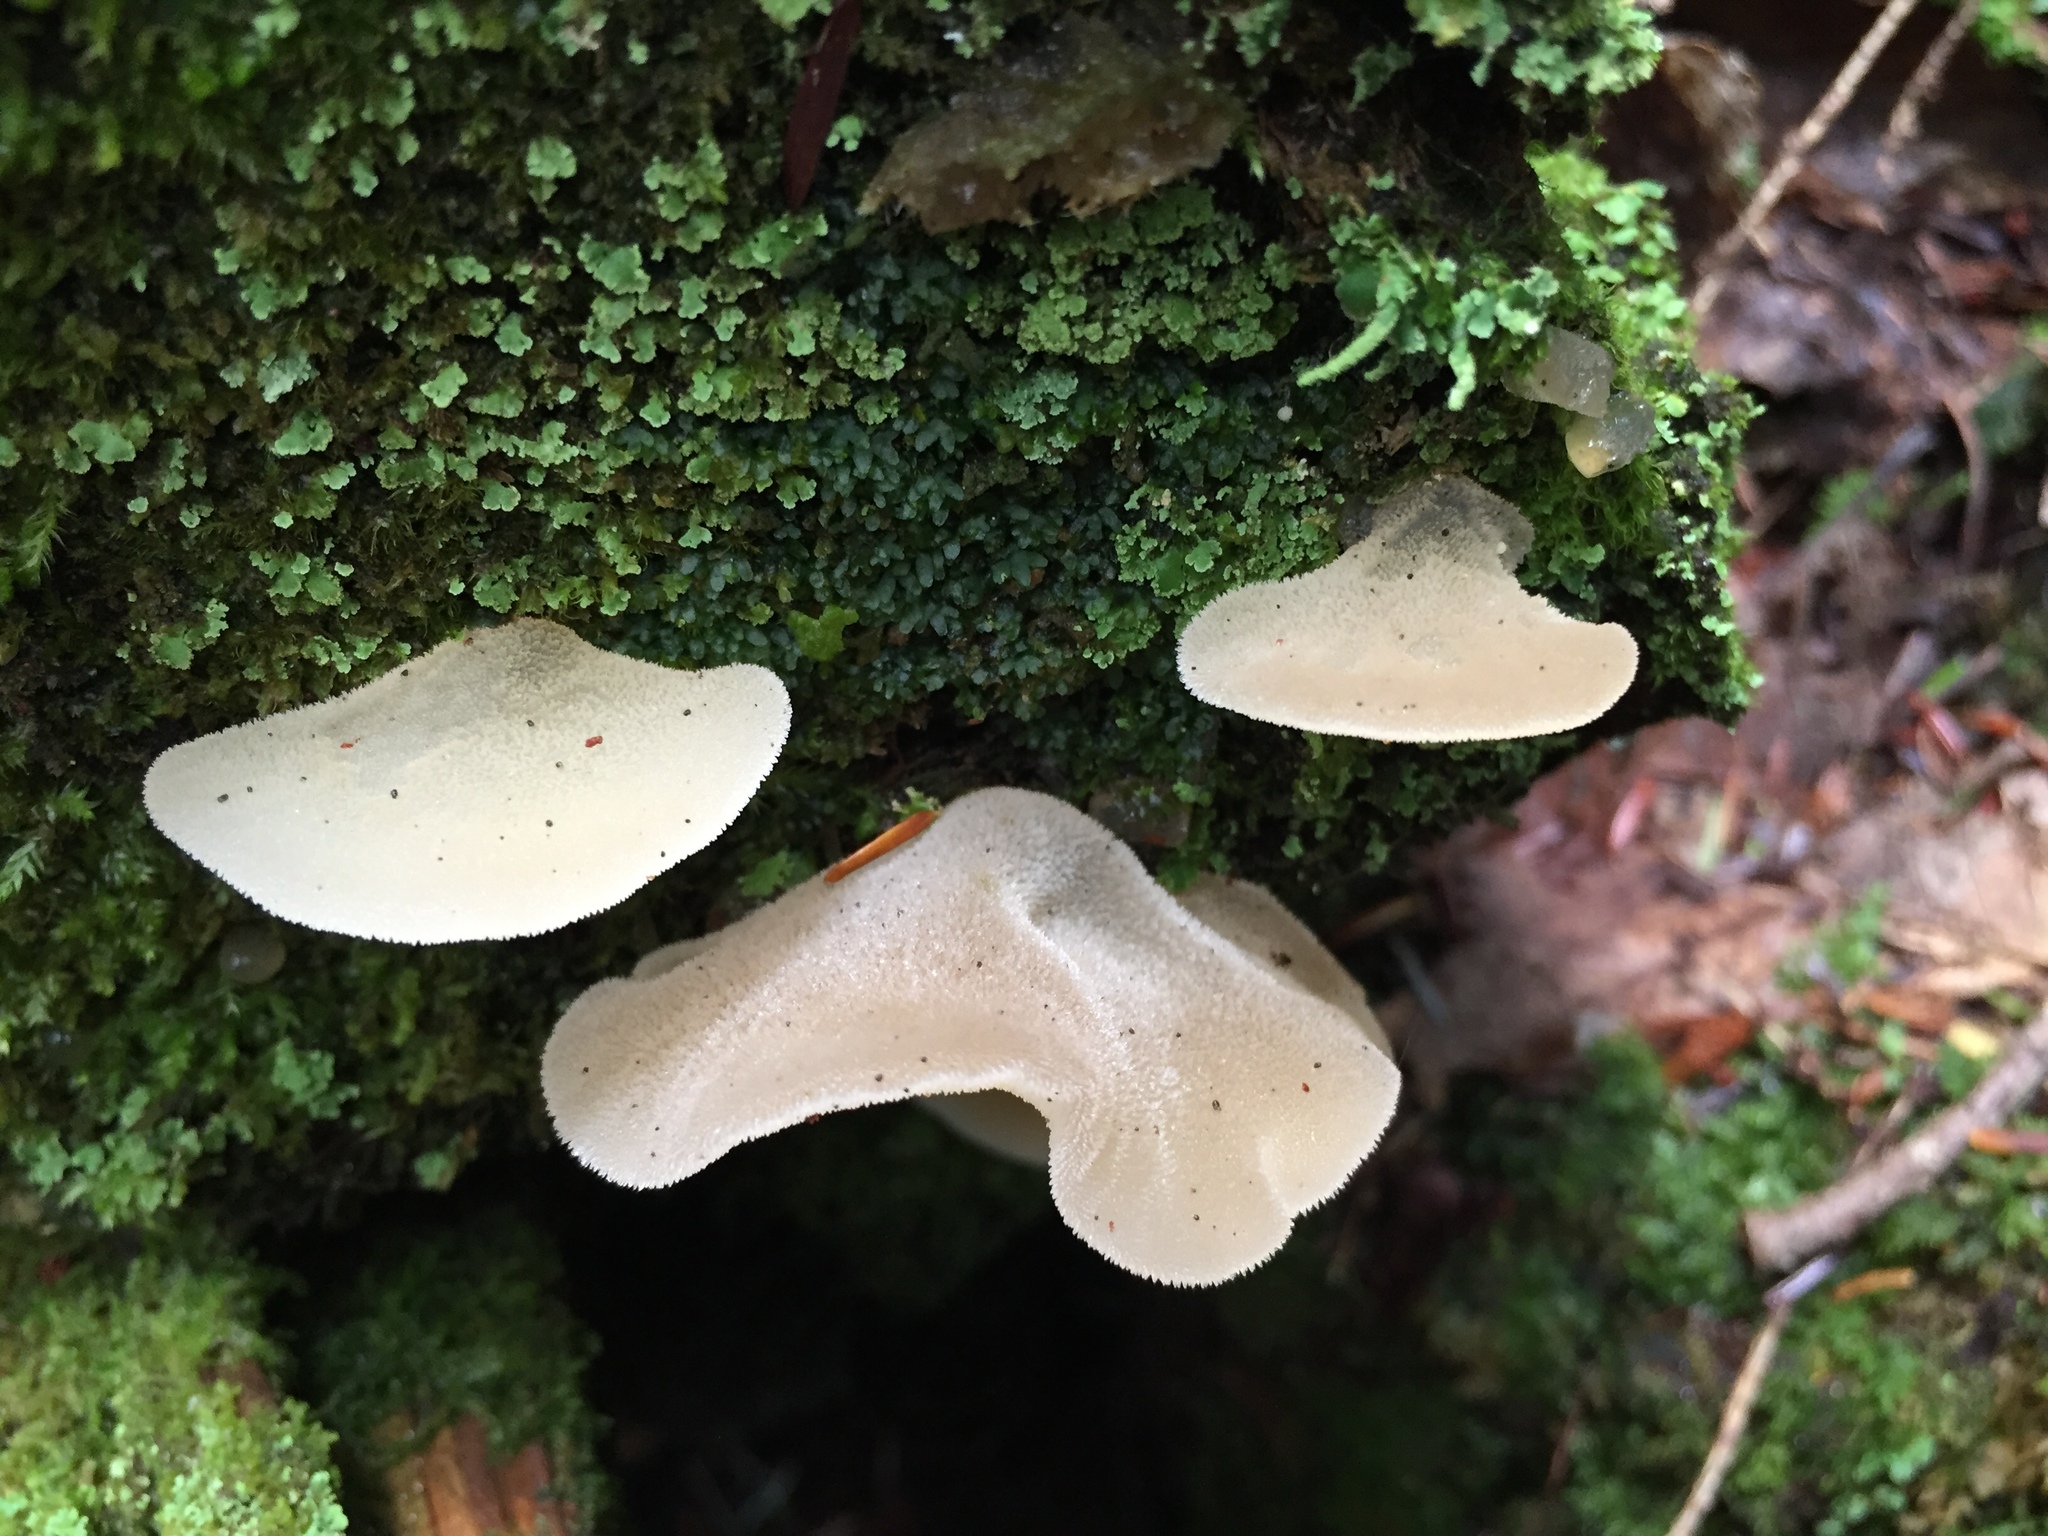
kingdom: Fungi
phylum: Basidiomycota
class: Agaricomycetes
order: Auriculariales
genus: Pseudohydnum
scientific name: Pseudohydnum gelatinosum
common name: Jelly tongue
